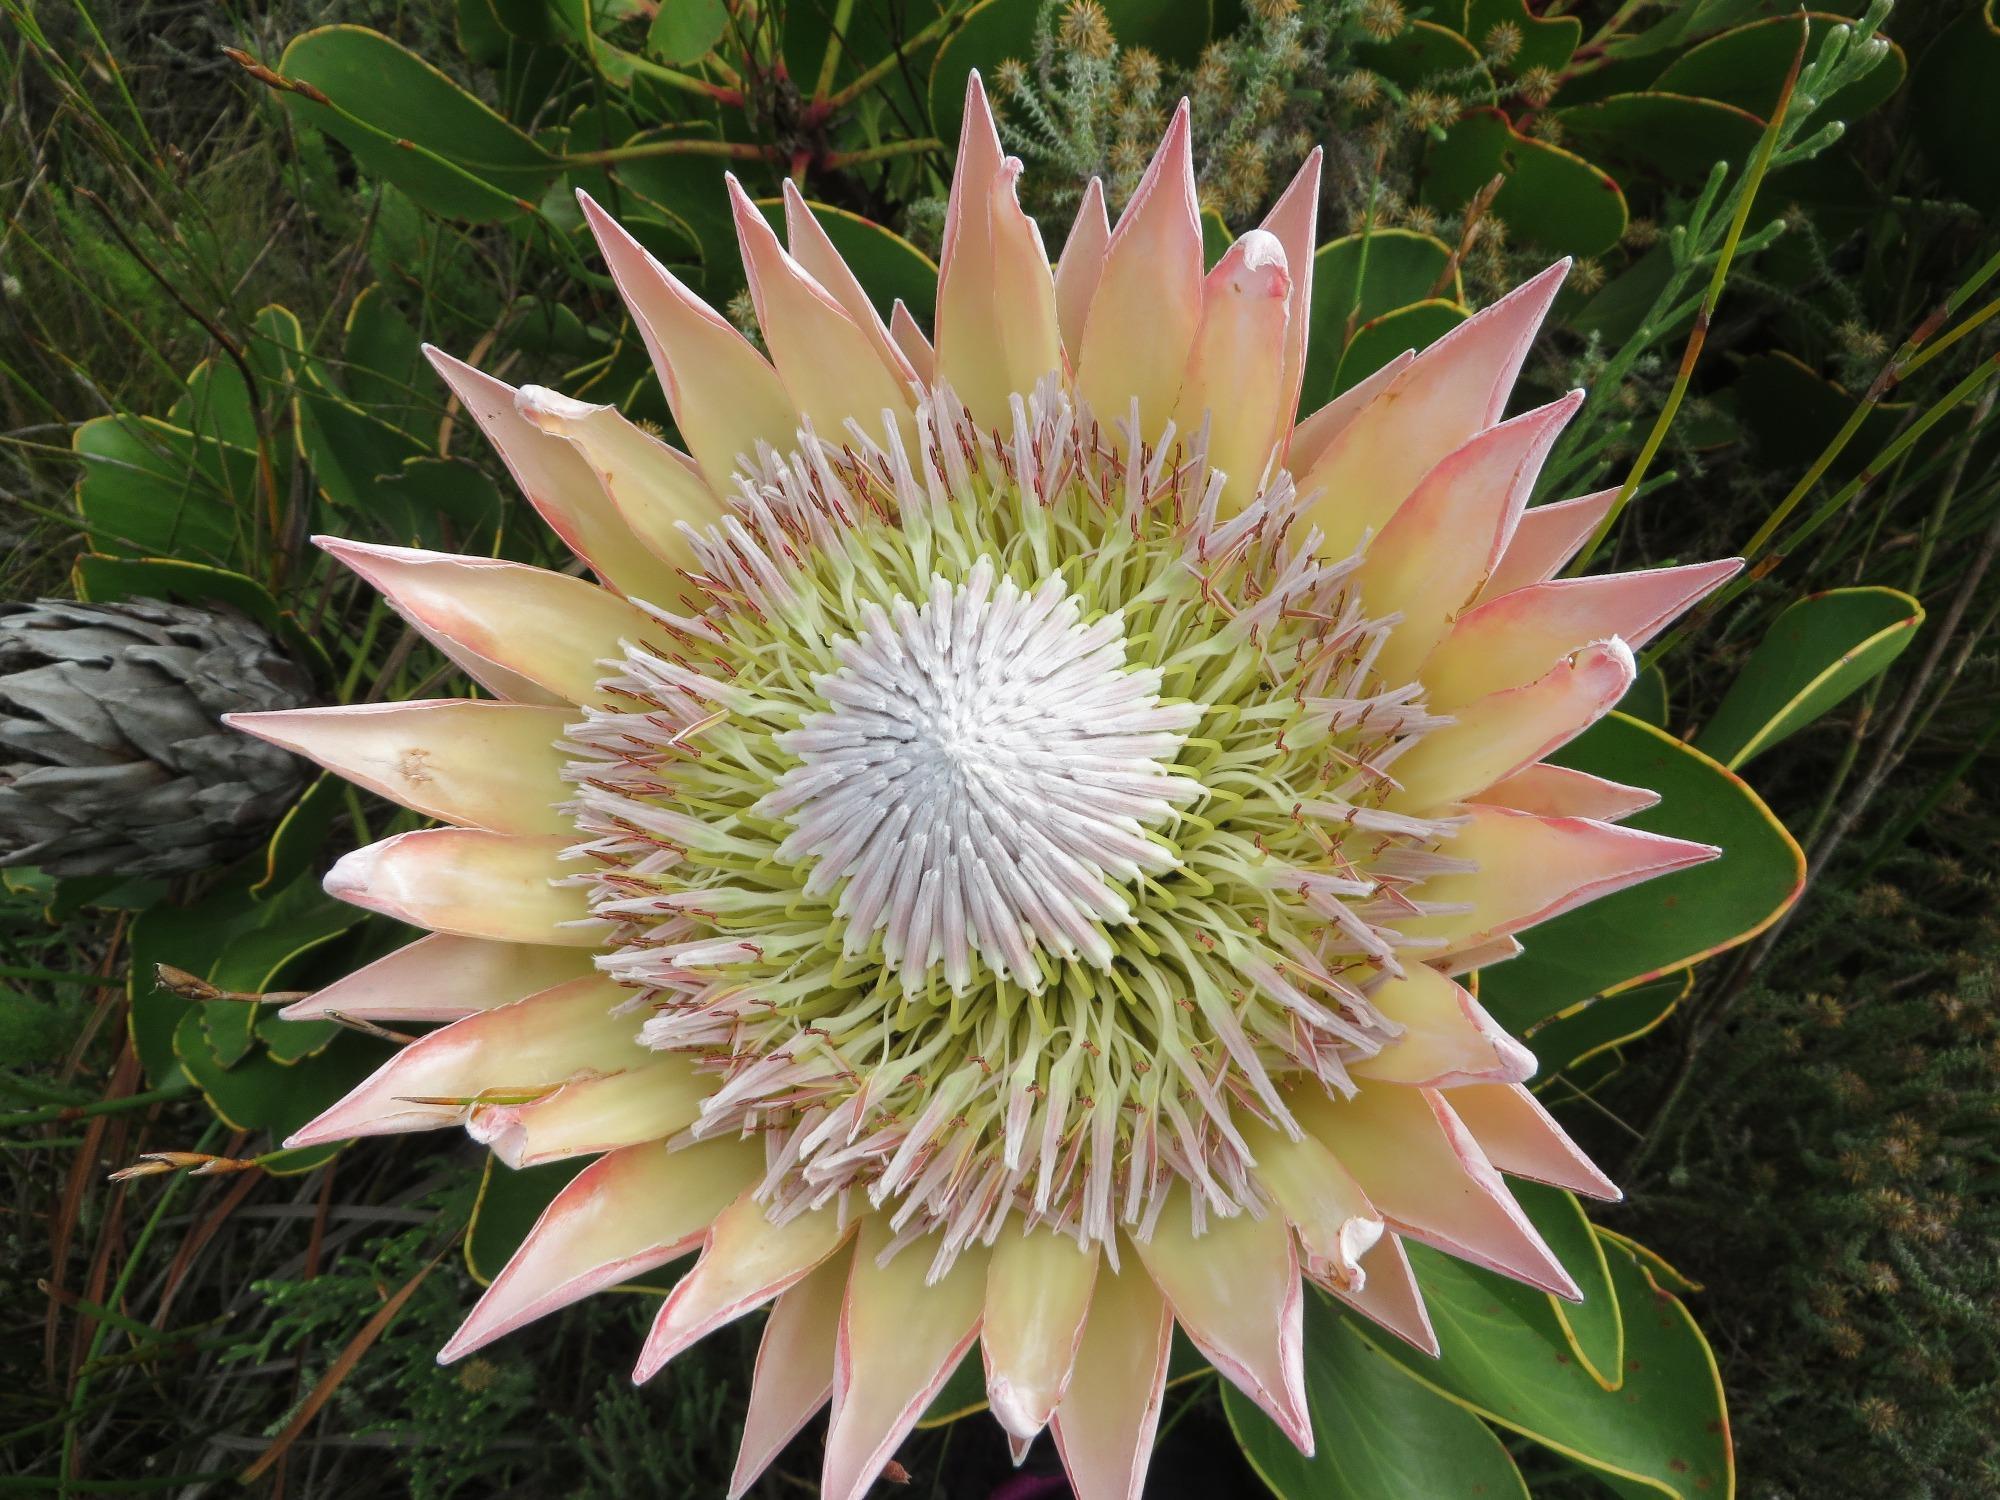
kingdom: Plantae
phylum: Tracheophyta
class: Magnoliopsida
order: Proteales
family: Proteaceae
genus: Protea
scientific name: Protea cynaroides
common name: King protea
